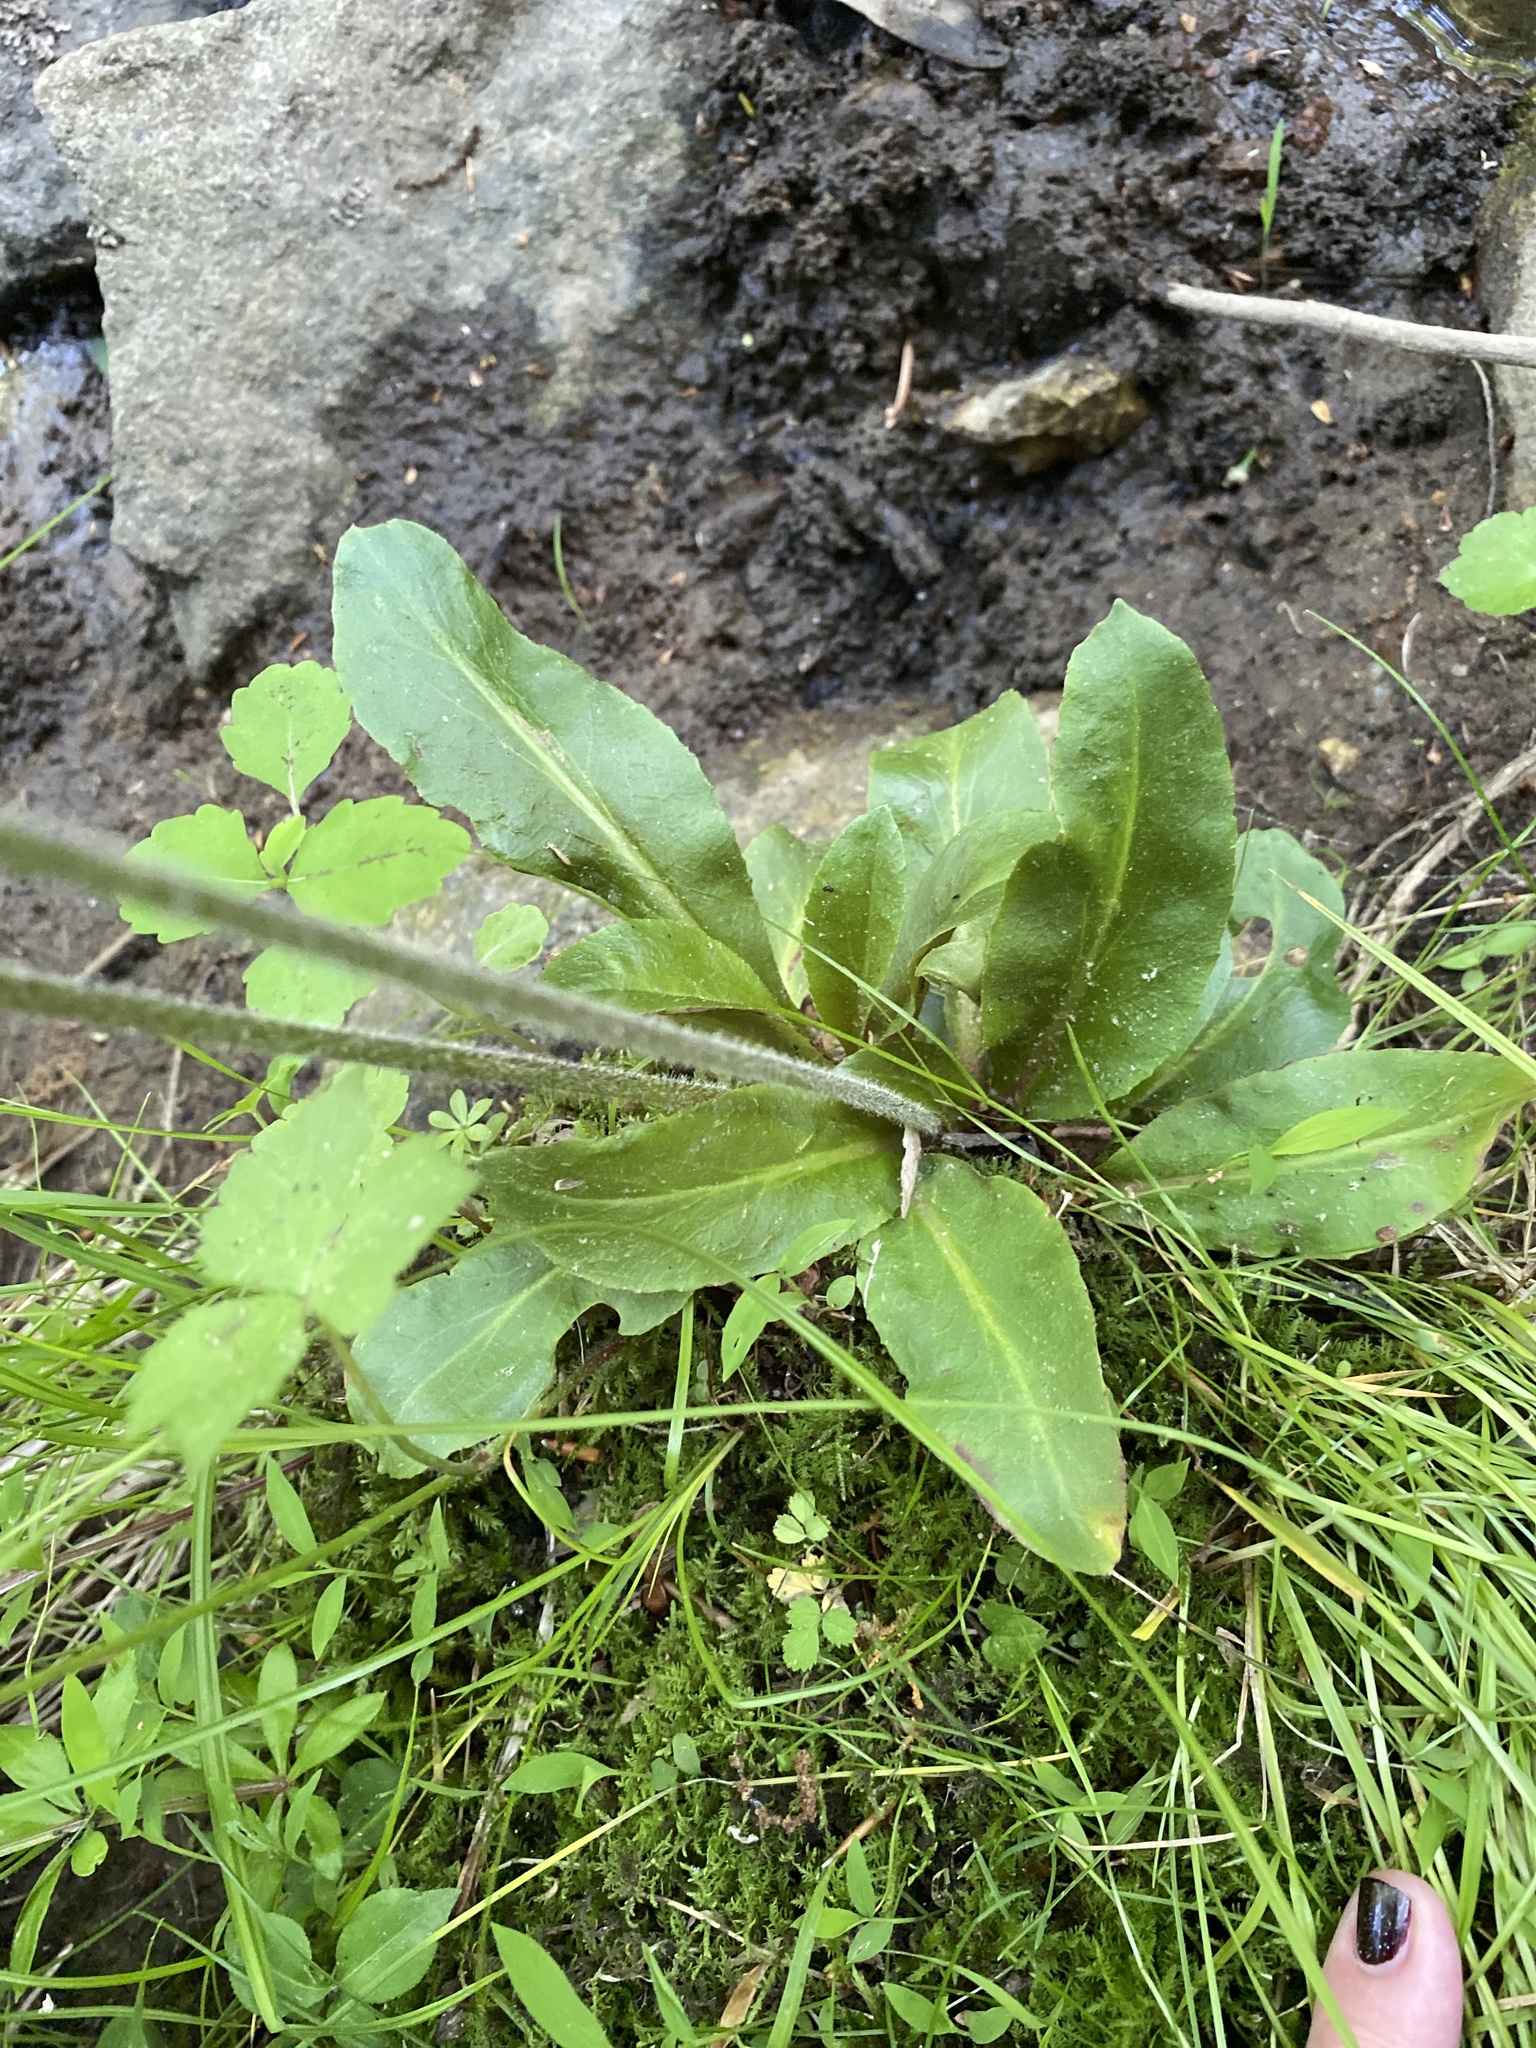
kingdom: Plantae
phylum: Tracheophyta
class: Magnoliopsida
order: Saxifragales
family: Saxifragaceae
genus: Micranthes
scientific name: Micranthes pensylvanica
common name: Marsh saxifrage
